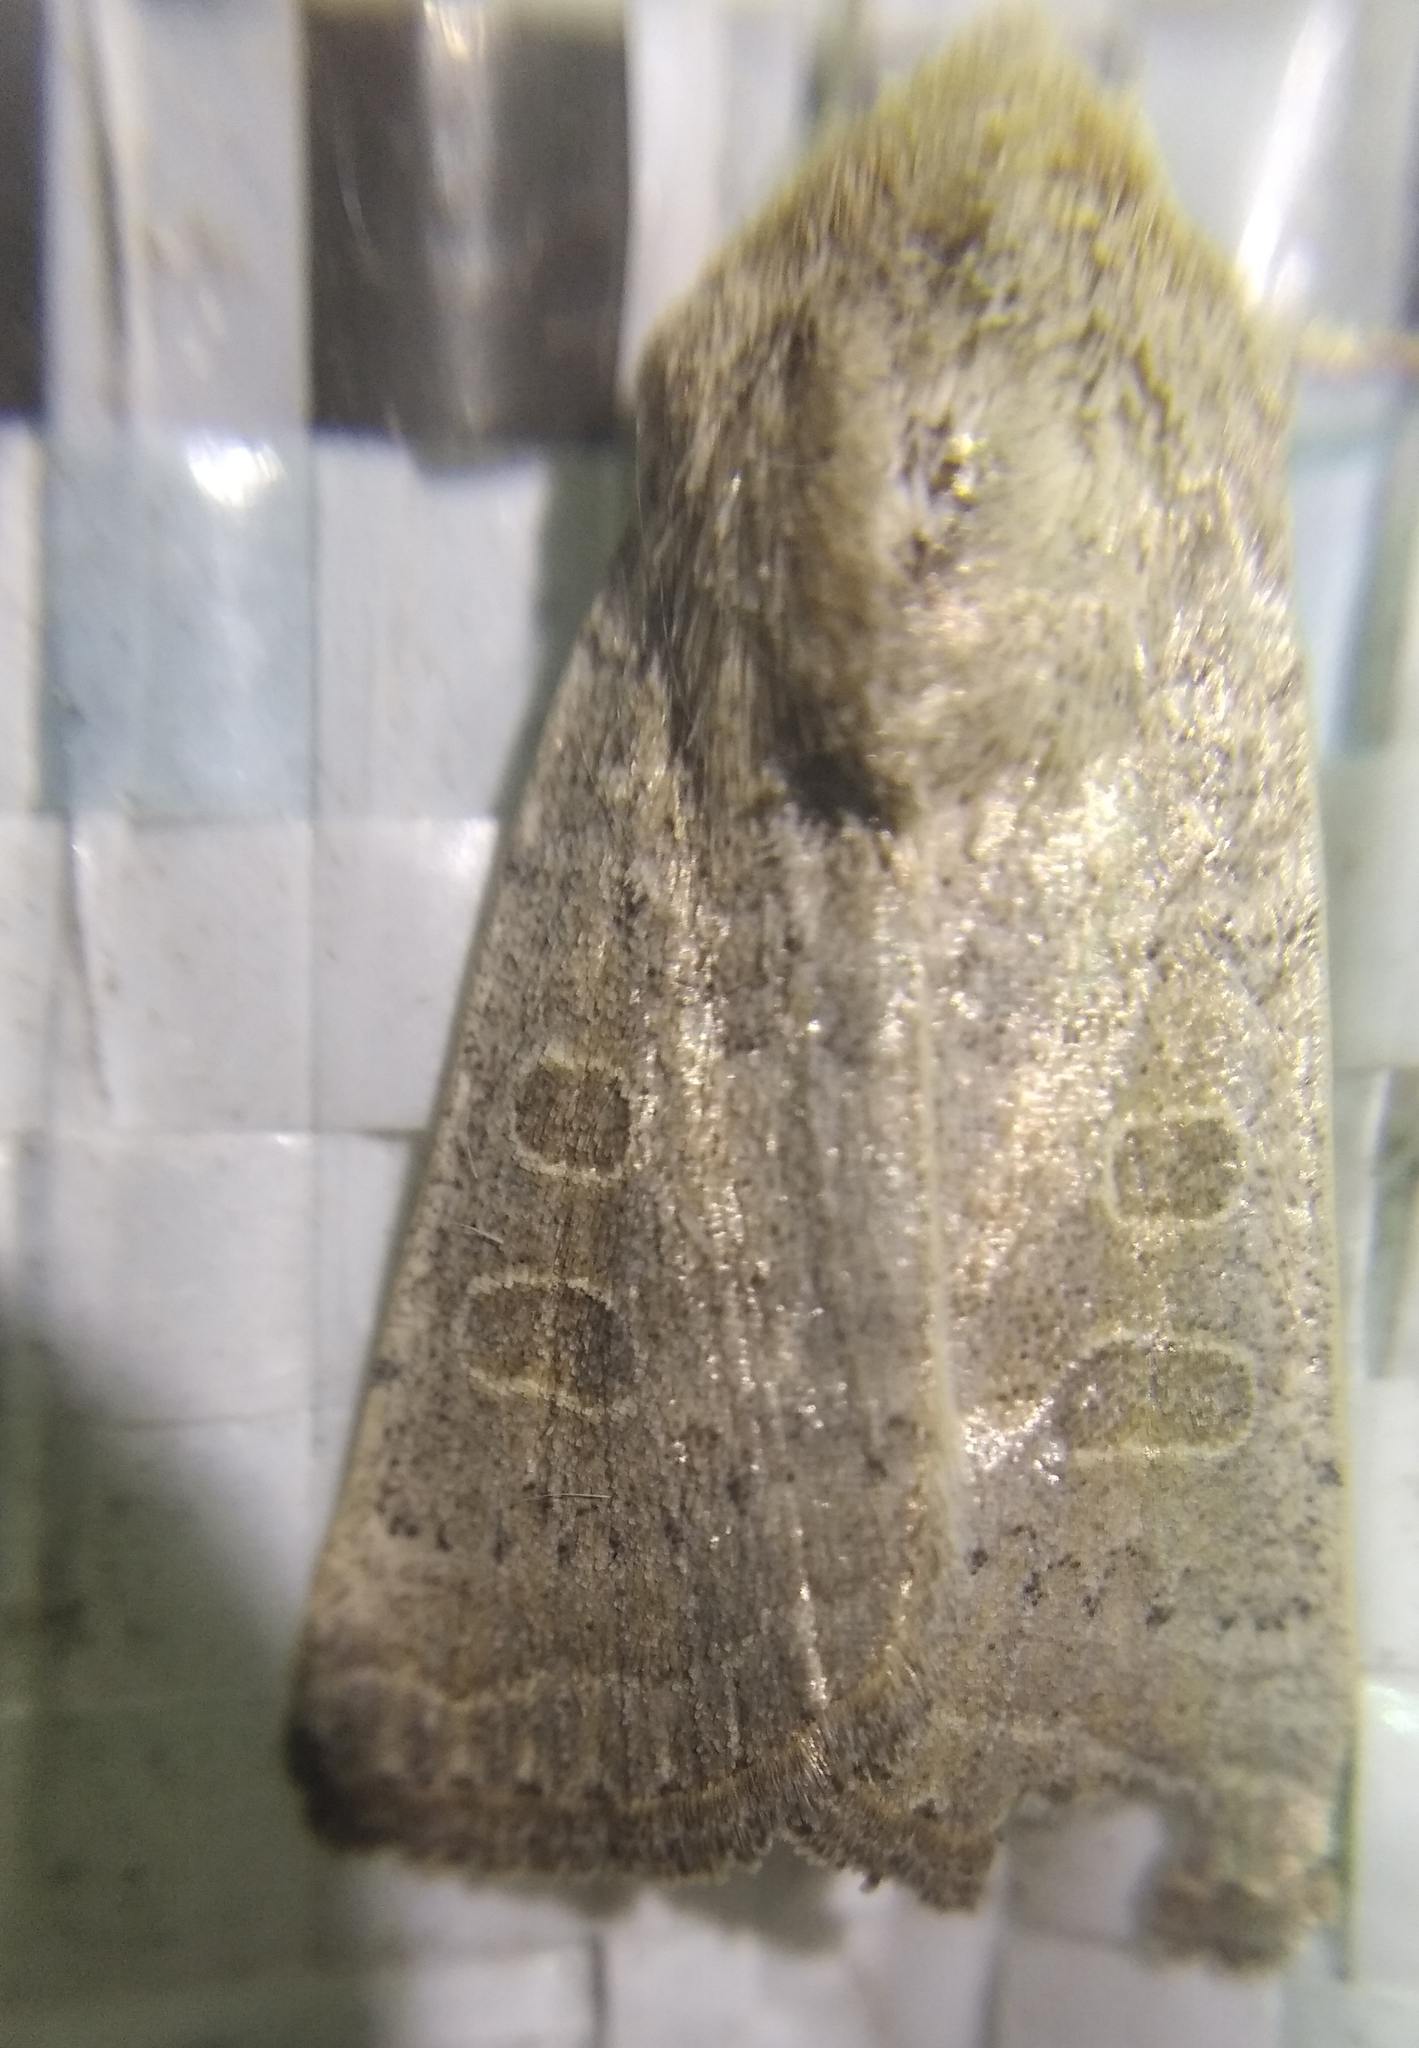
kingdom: Animalia
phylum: Arthropoda
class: Insecta
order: Lepidoptera
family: Noctuidae
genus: Hoplodrina
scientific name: Hoplodrina ambigua
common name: Vine's rustic
